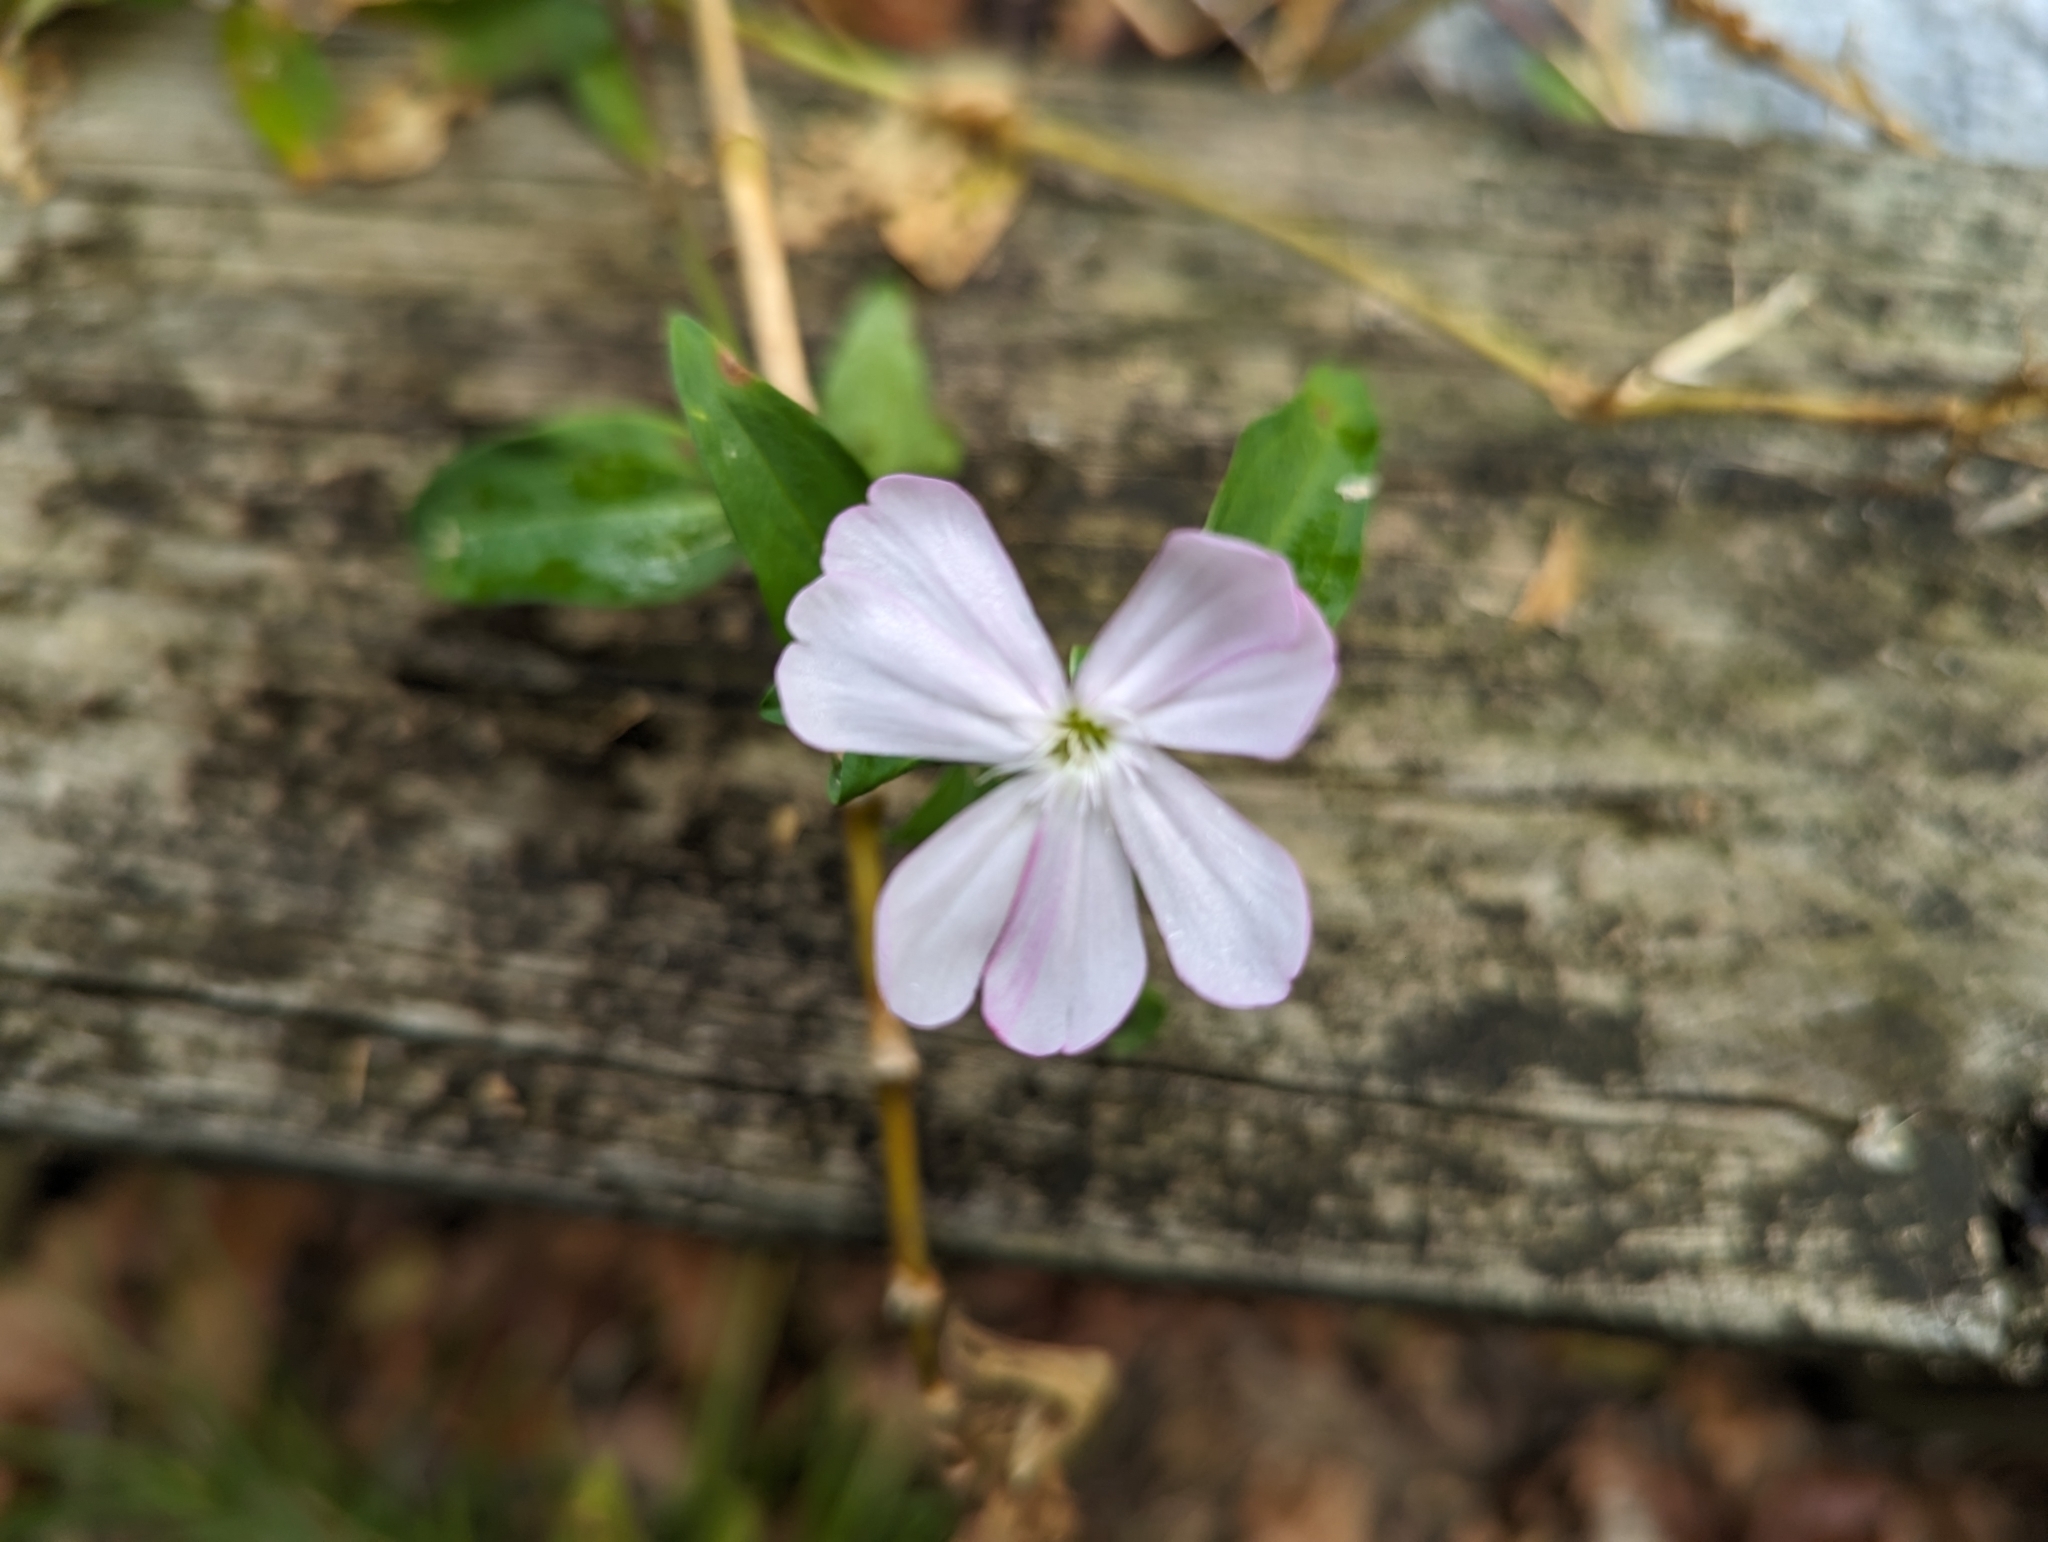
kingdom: Plantae
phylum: Tracheophyta
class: Magnoliopsida
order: Caryophyllales
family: Caryophyllaceae
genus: Saponaria
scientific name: Saponaria officinalis
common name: Soapwort
